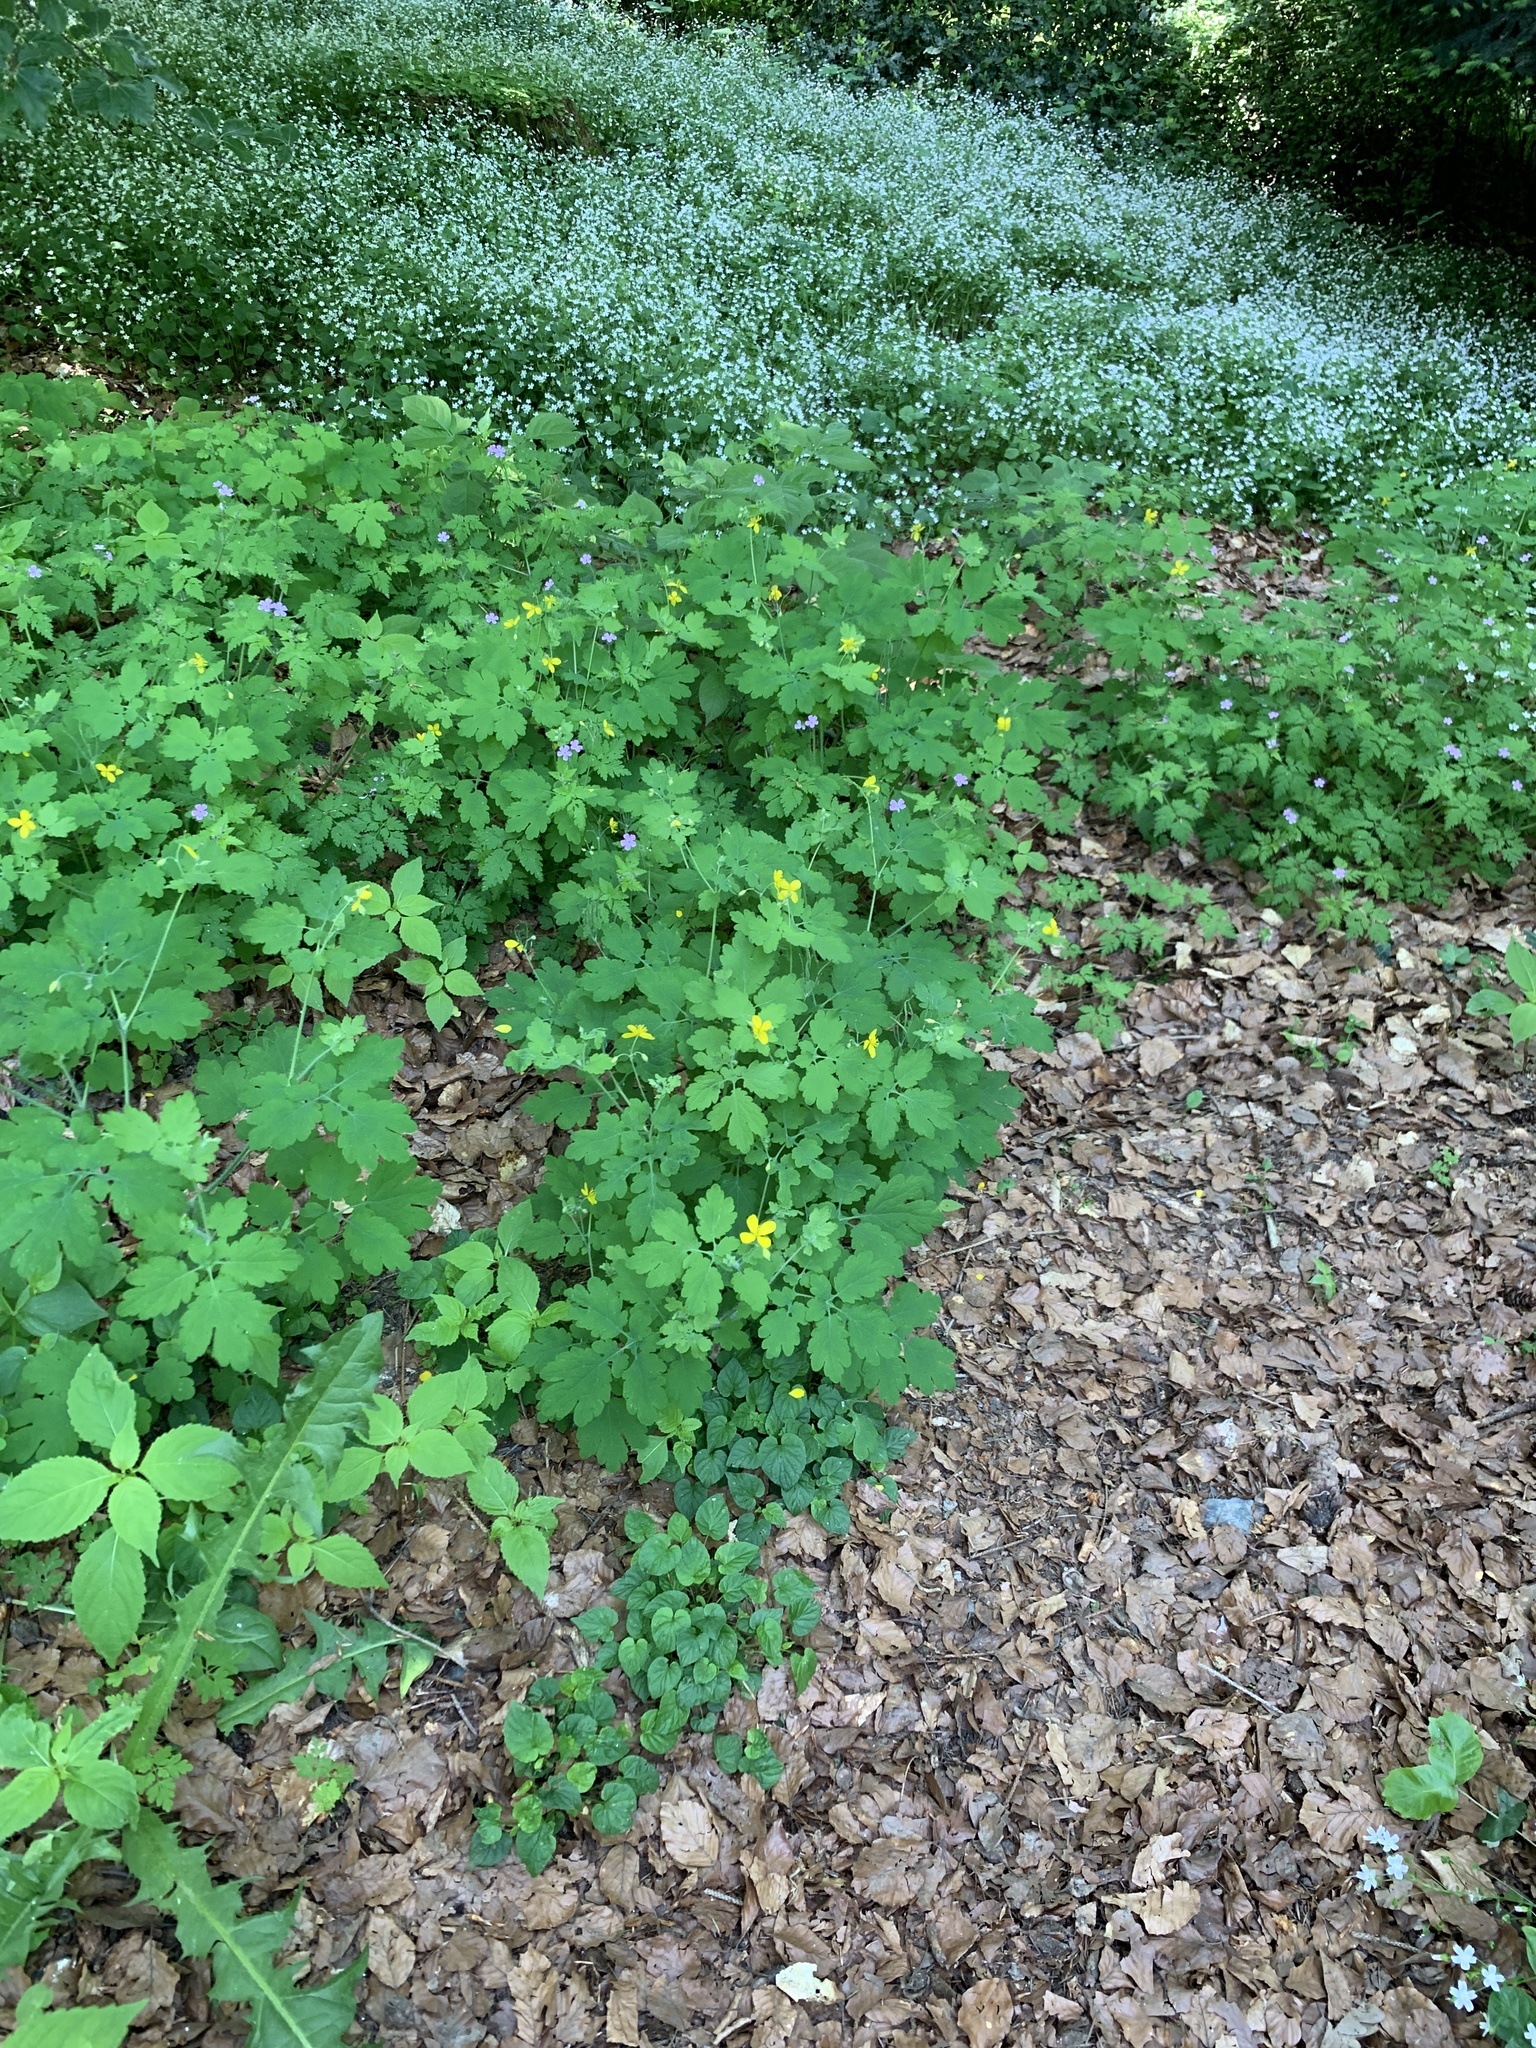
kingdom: Plantae
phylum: Tracheophyta
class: Magnoliopsida
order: Ranunculales
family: Papaveraceae
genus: Chelidonium
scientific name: Chelidonium majus
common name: Greater celandine
